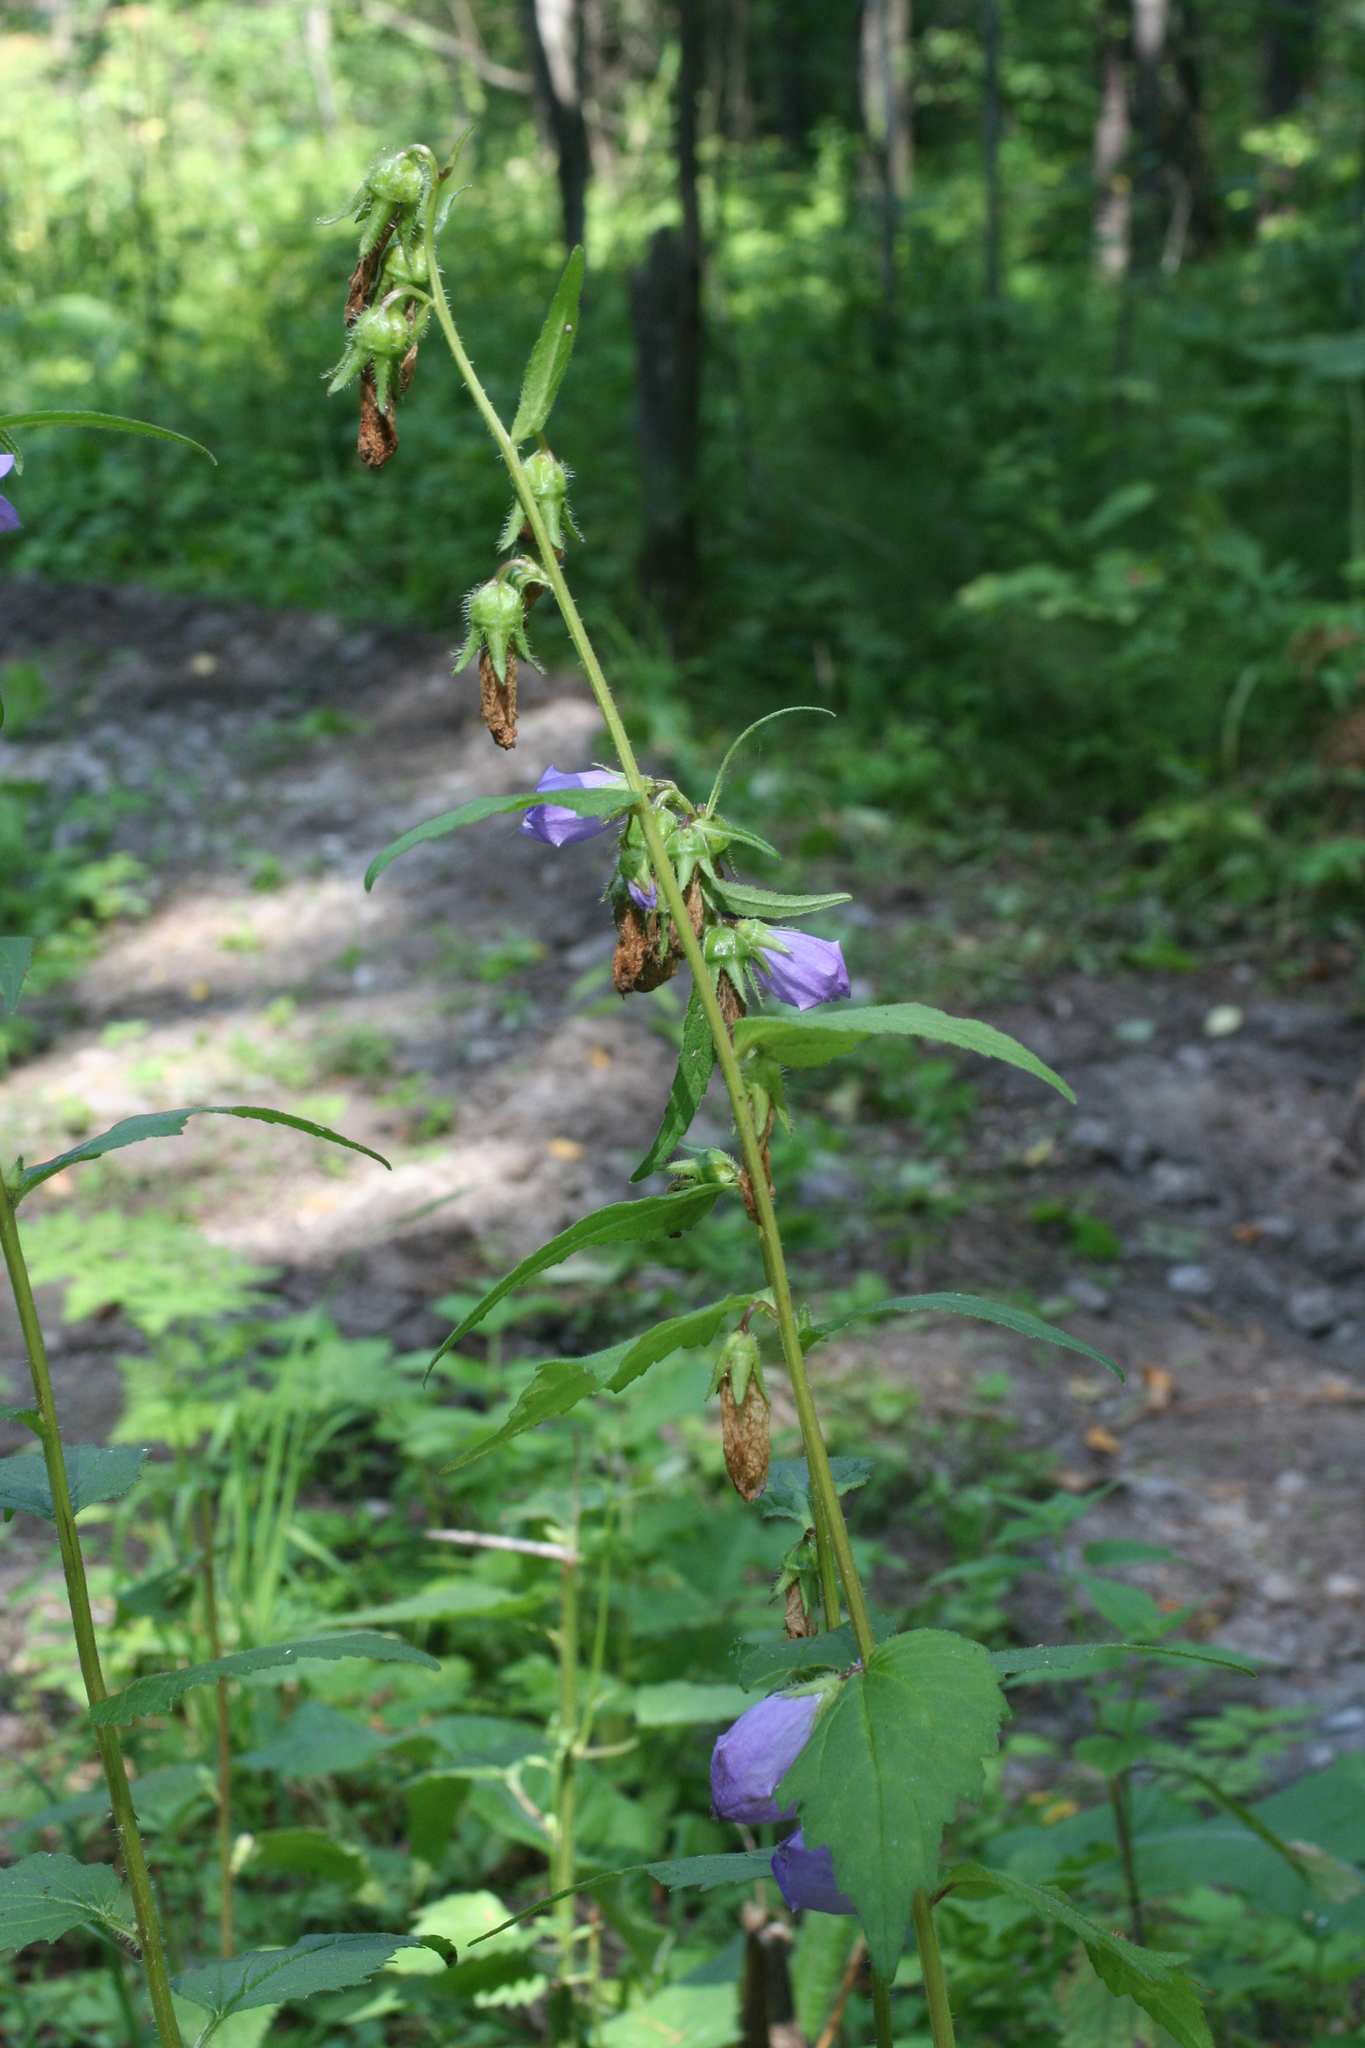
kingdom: Plantae
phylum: Tracheophyta
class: Magnoliopsida
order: Asterales
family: Campanulaceae
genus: Campanula
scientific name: Campanula trachelium
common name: Nettle-leaved bellflower
